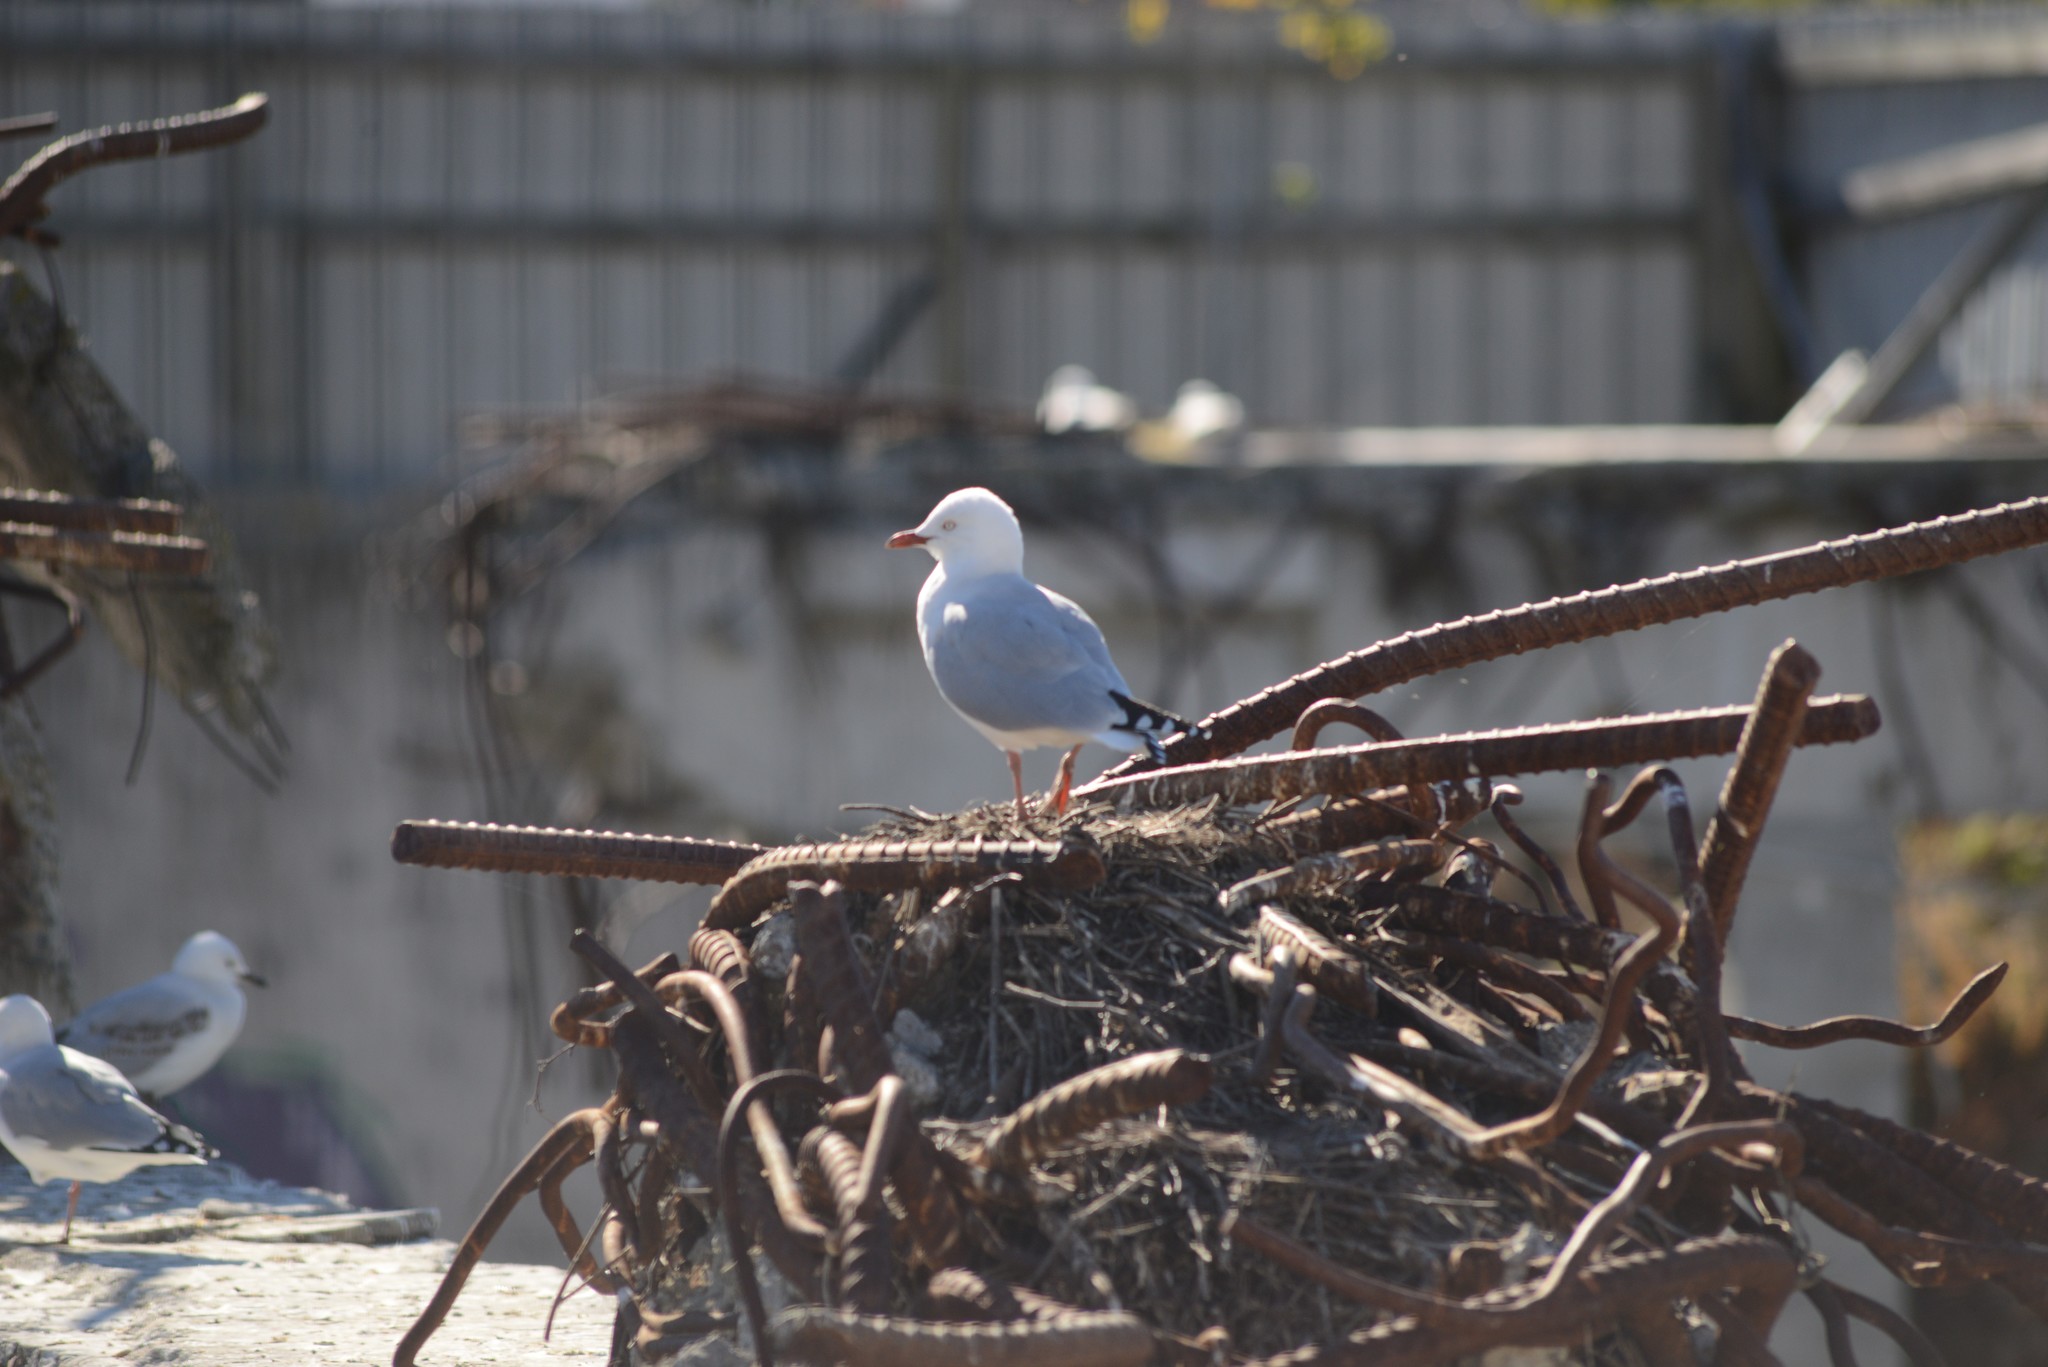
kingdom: Animalia
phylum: Chordata
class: Aves
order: Charadriiformes
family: Laridae
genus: Chroicocephalus
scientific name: Chroicocephalus novaehollandiae
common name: Silver gull
